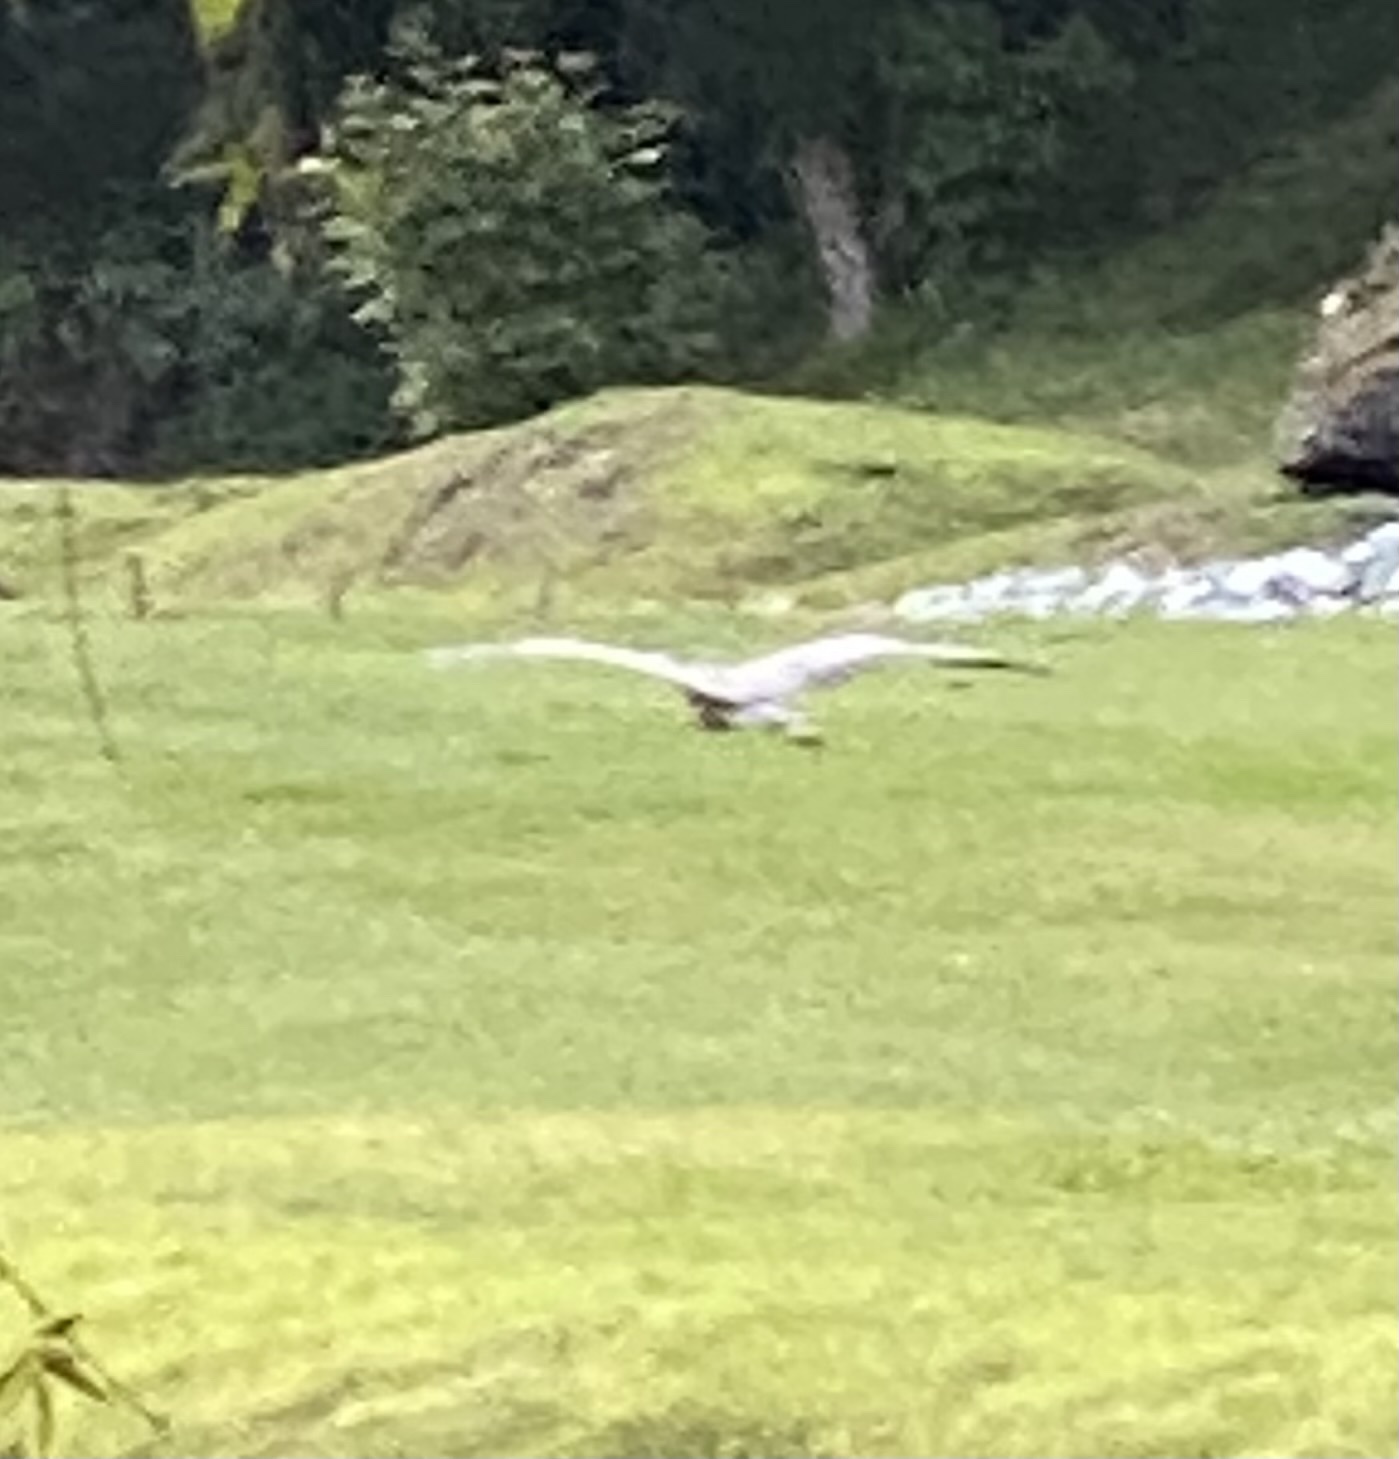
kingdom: Animalia
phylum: Chordata
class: Aves
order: Pelecaniformes
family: Ardeidae
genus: Ardea
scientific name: Ardea herodias
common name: Great blue heron
